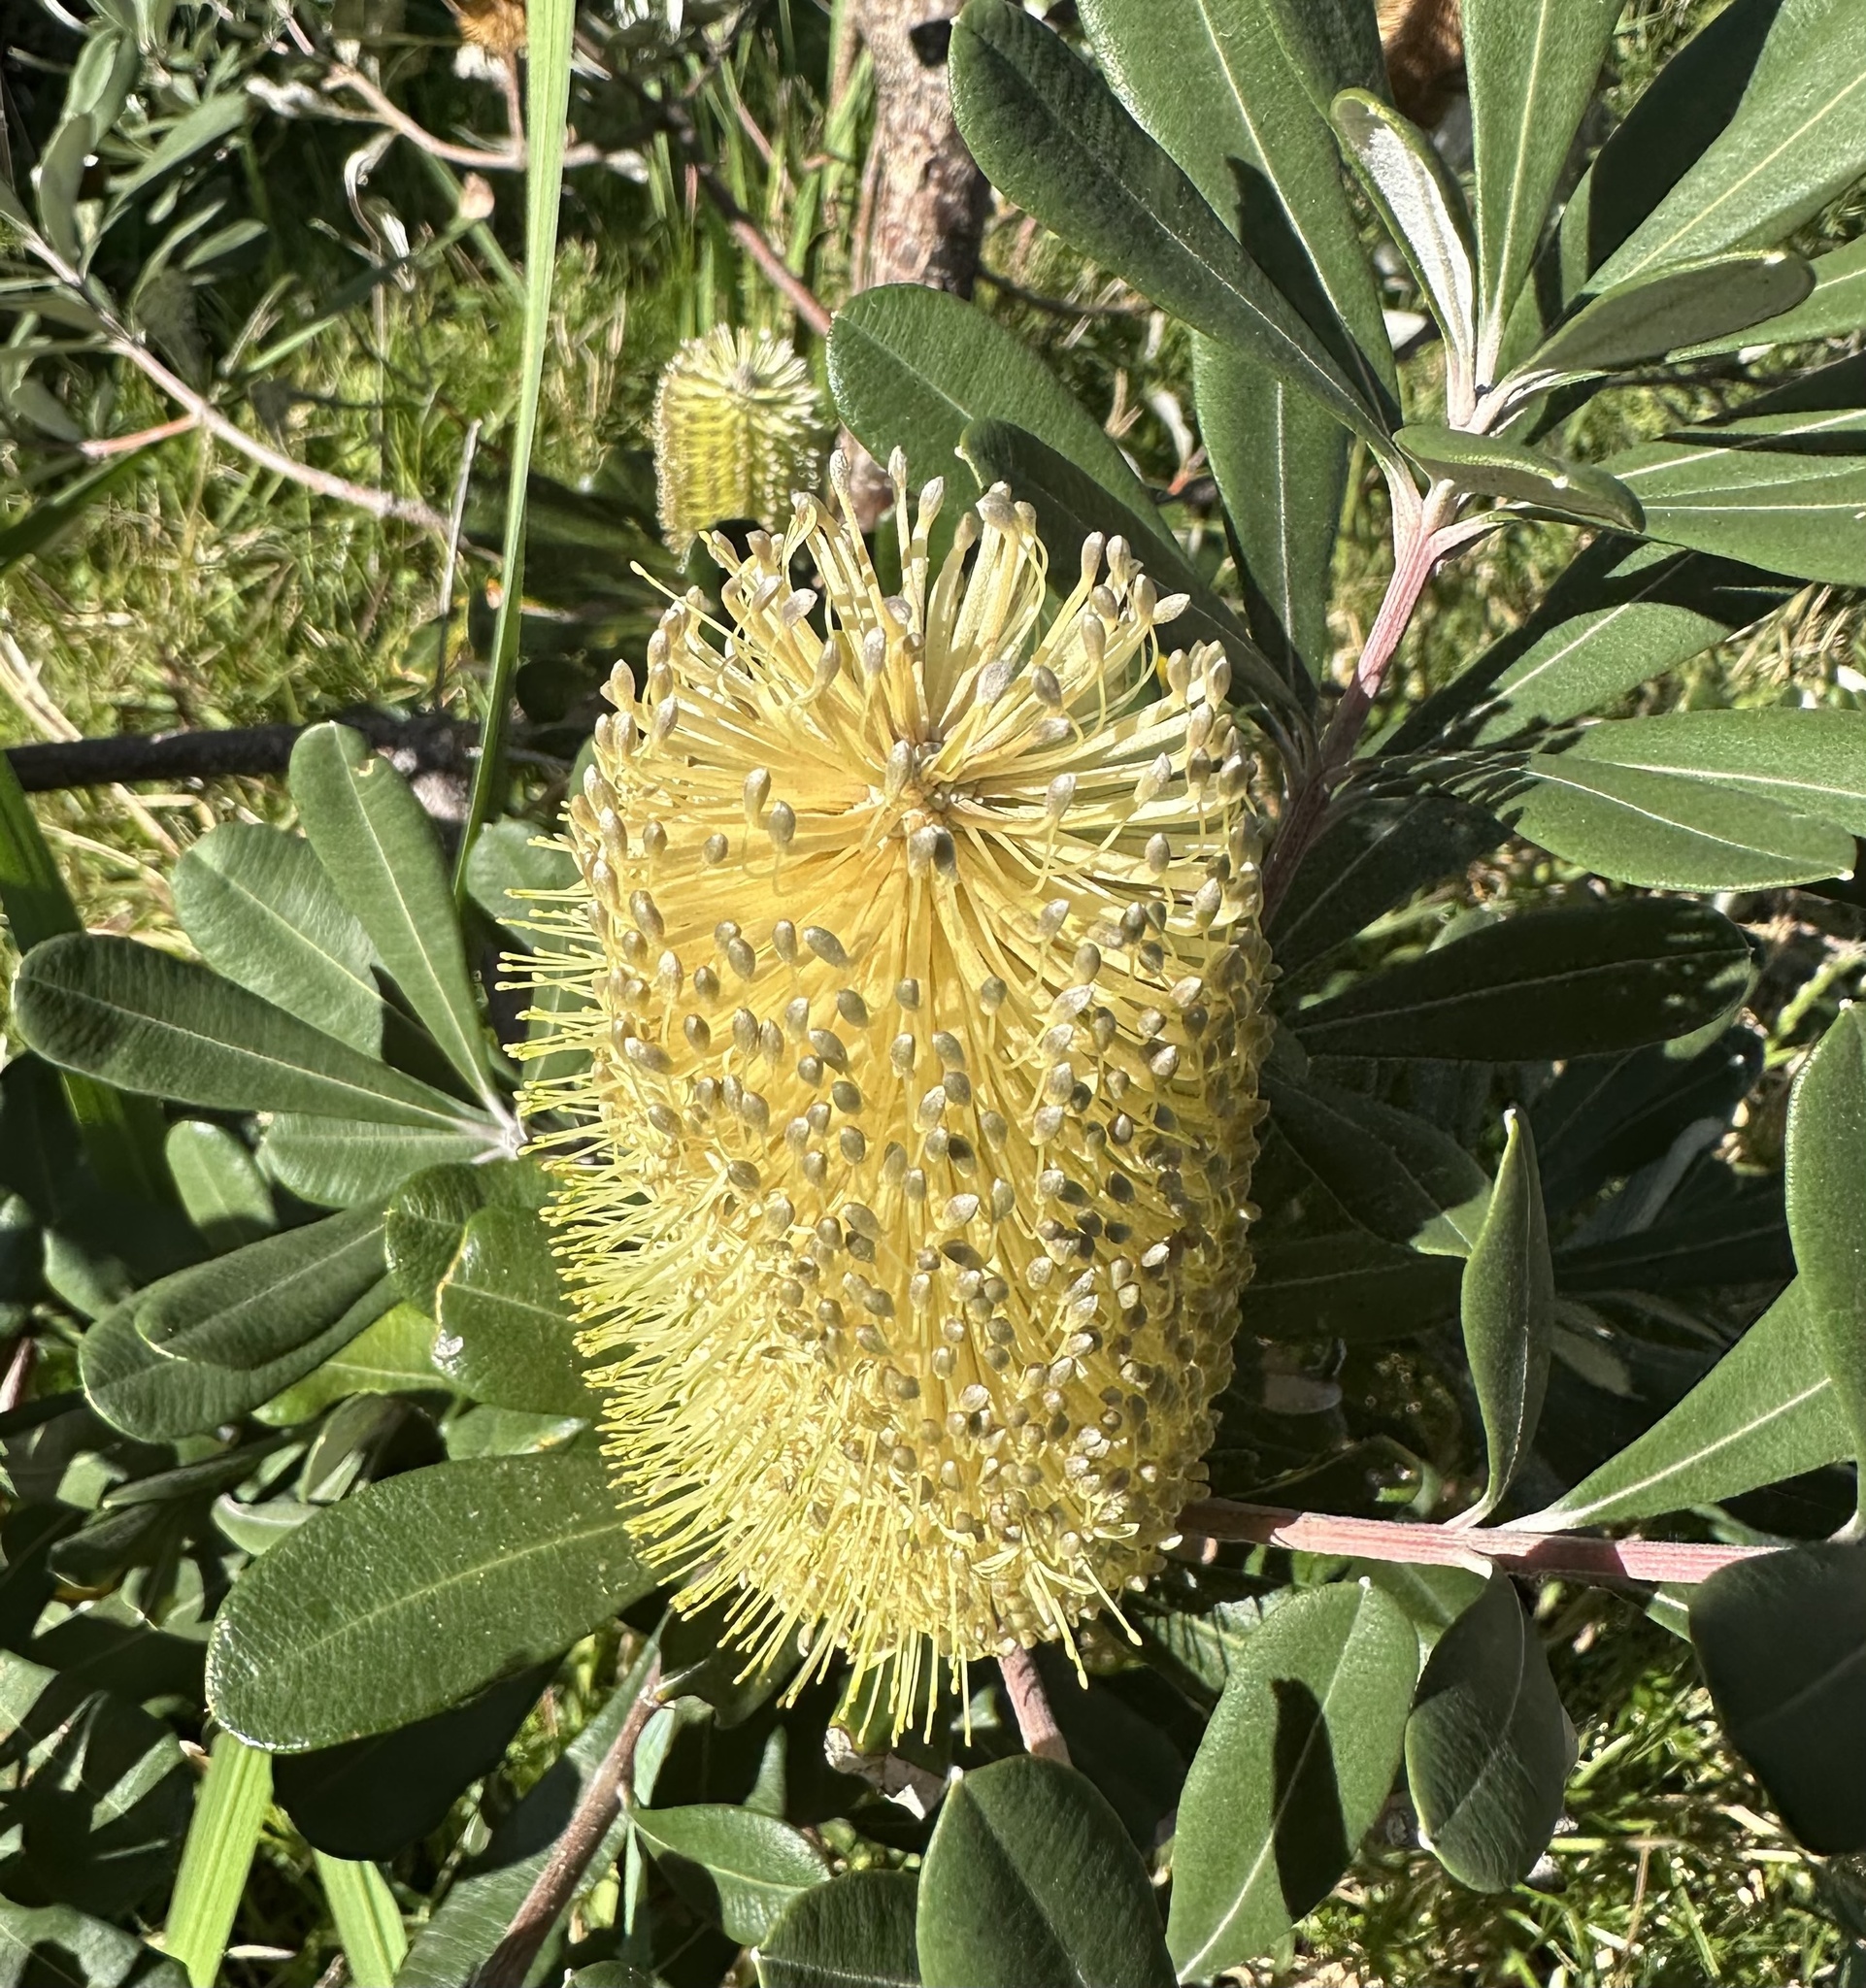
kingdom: Plantae
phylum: Tracheophyta
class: Magnoliopsida
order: Proteales
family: Proteaceae
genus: Banksia
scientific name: Banksia integrifolia
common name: White-honeysuckle
